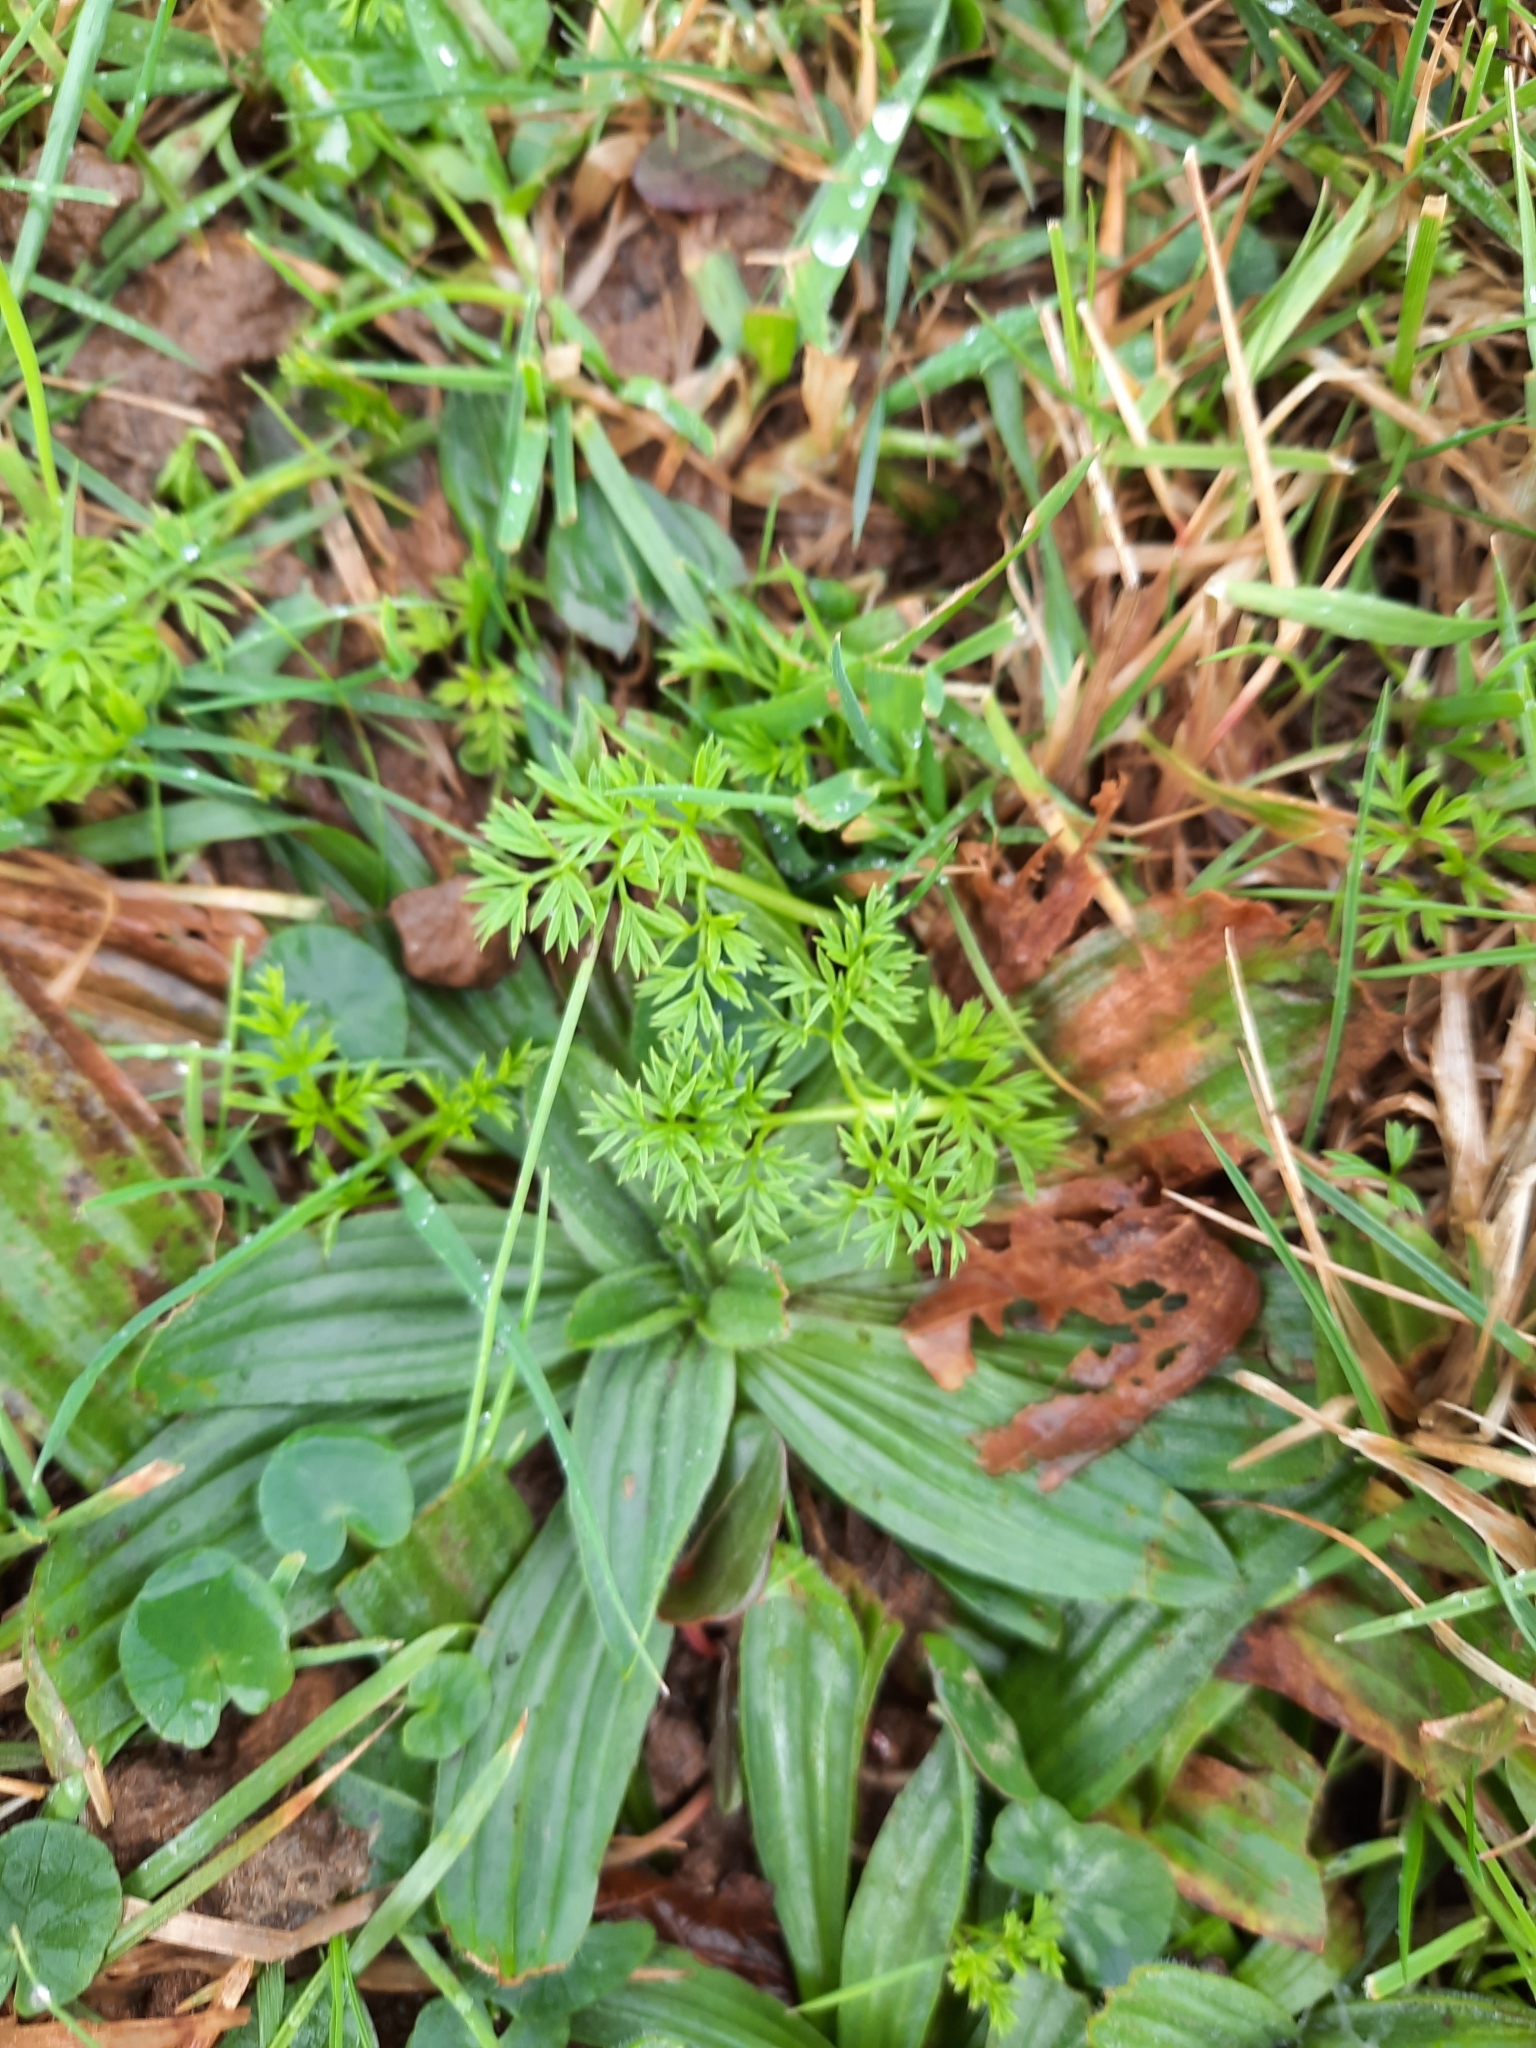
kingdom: Plantae
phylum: Tracheophyta
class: Magnoliopsida
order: Apiales
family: Apiaceae
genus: Conopodium
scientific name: Conopodium majus
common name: Pignut
